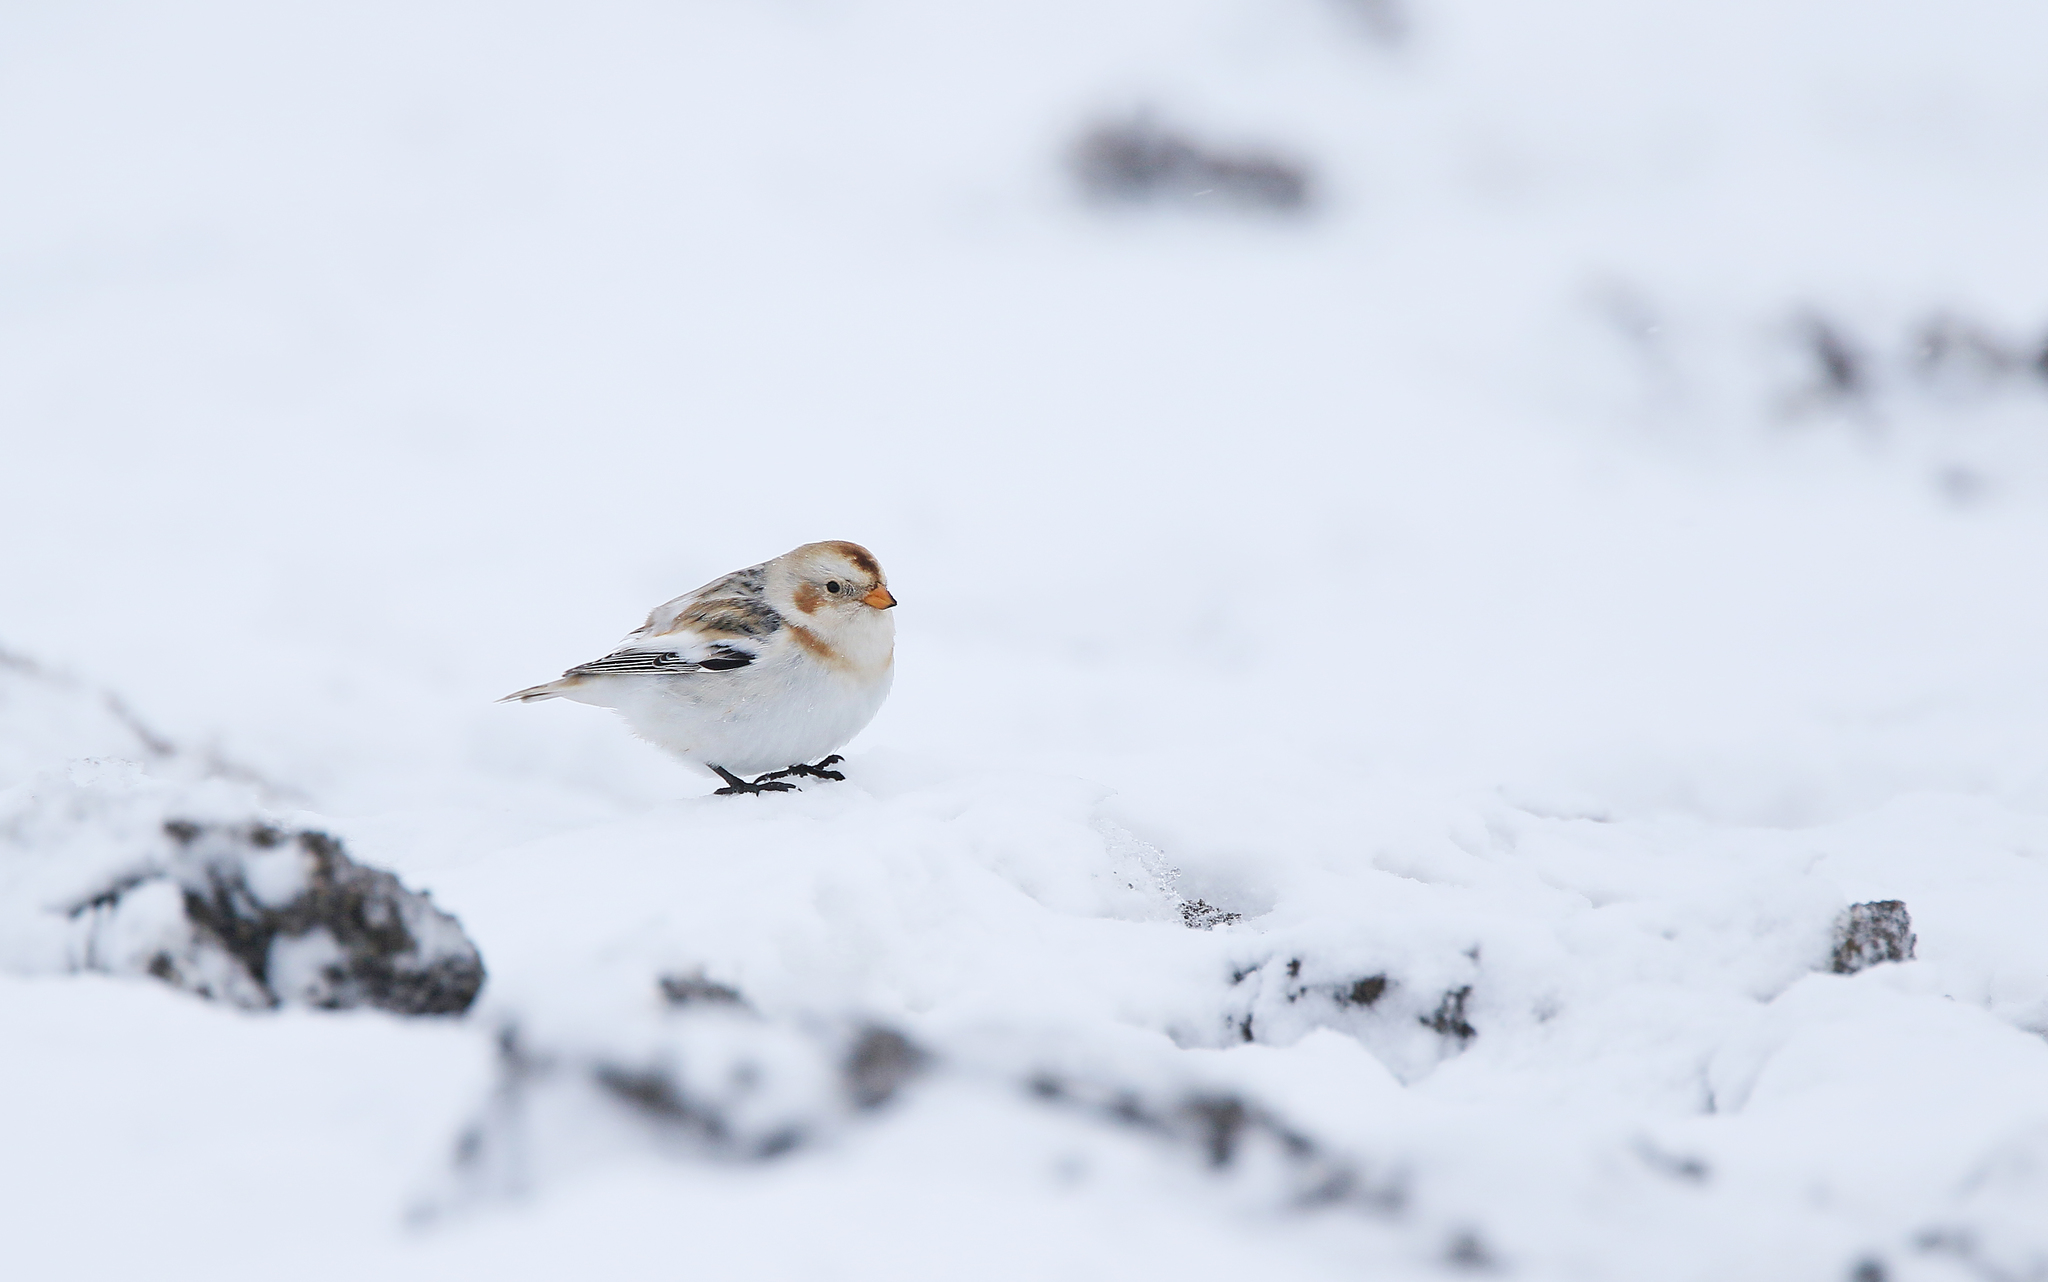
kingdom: Animalia
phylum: Chordata
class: Aves
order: Passeriformes
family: Calcariidae
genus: Plectrophenax
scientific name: Plectrophenax nivalis
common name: Snow bunting
